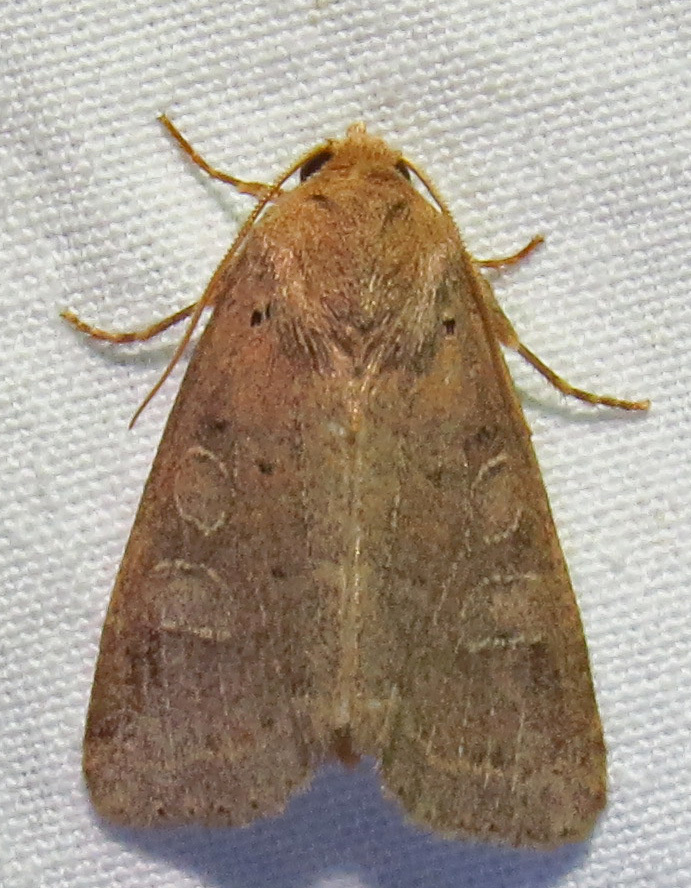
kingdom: Animalia
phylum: Arthropoda
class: Insecta
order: Lepidoptera
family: Noctuidae
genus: Kocakina
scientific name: Kocakina fidelis
